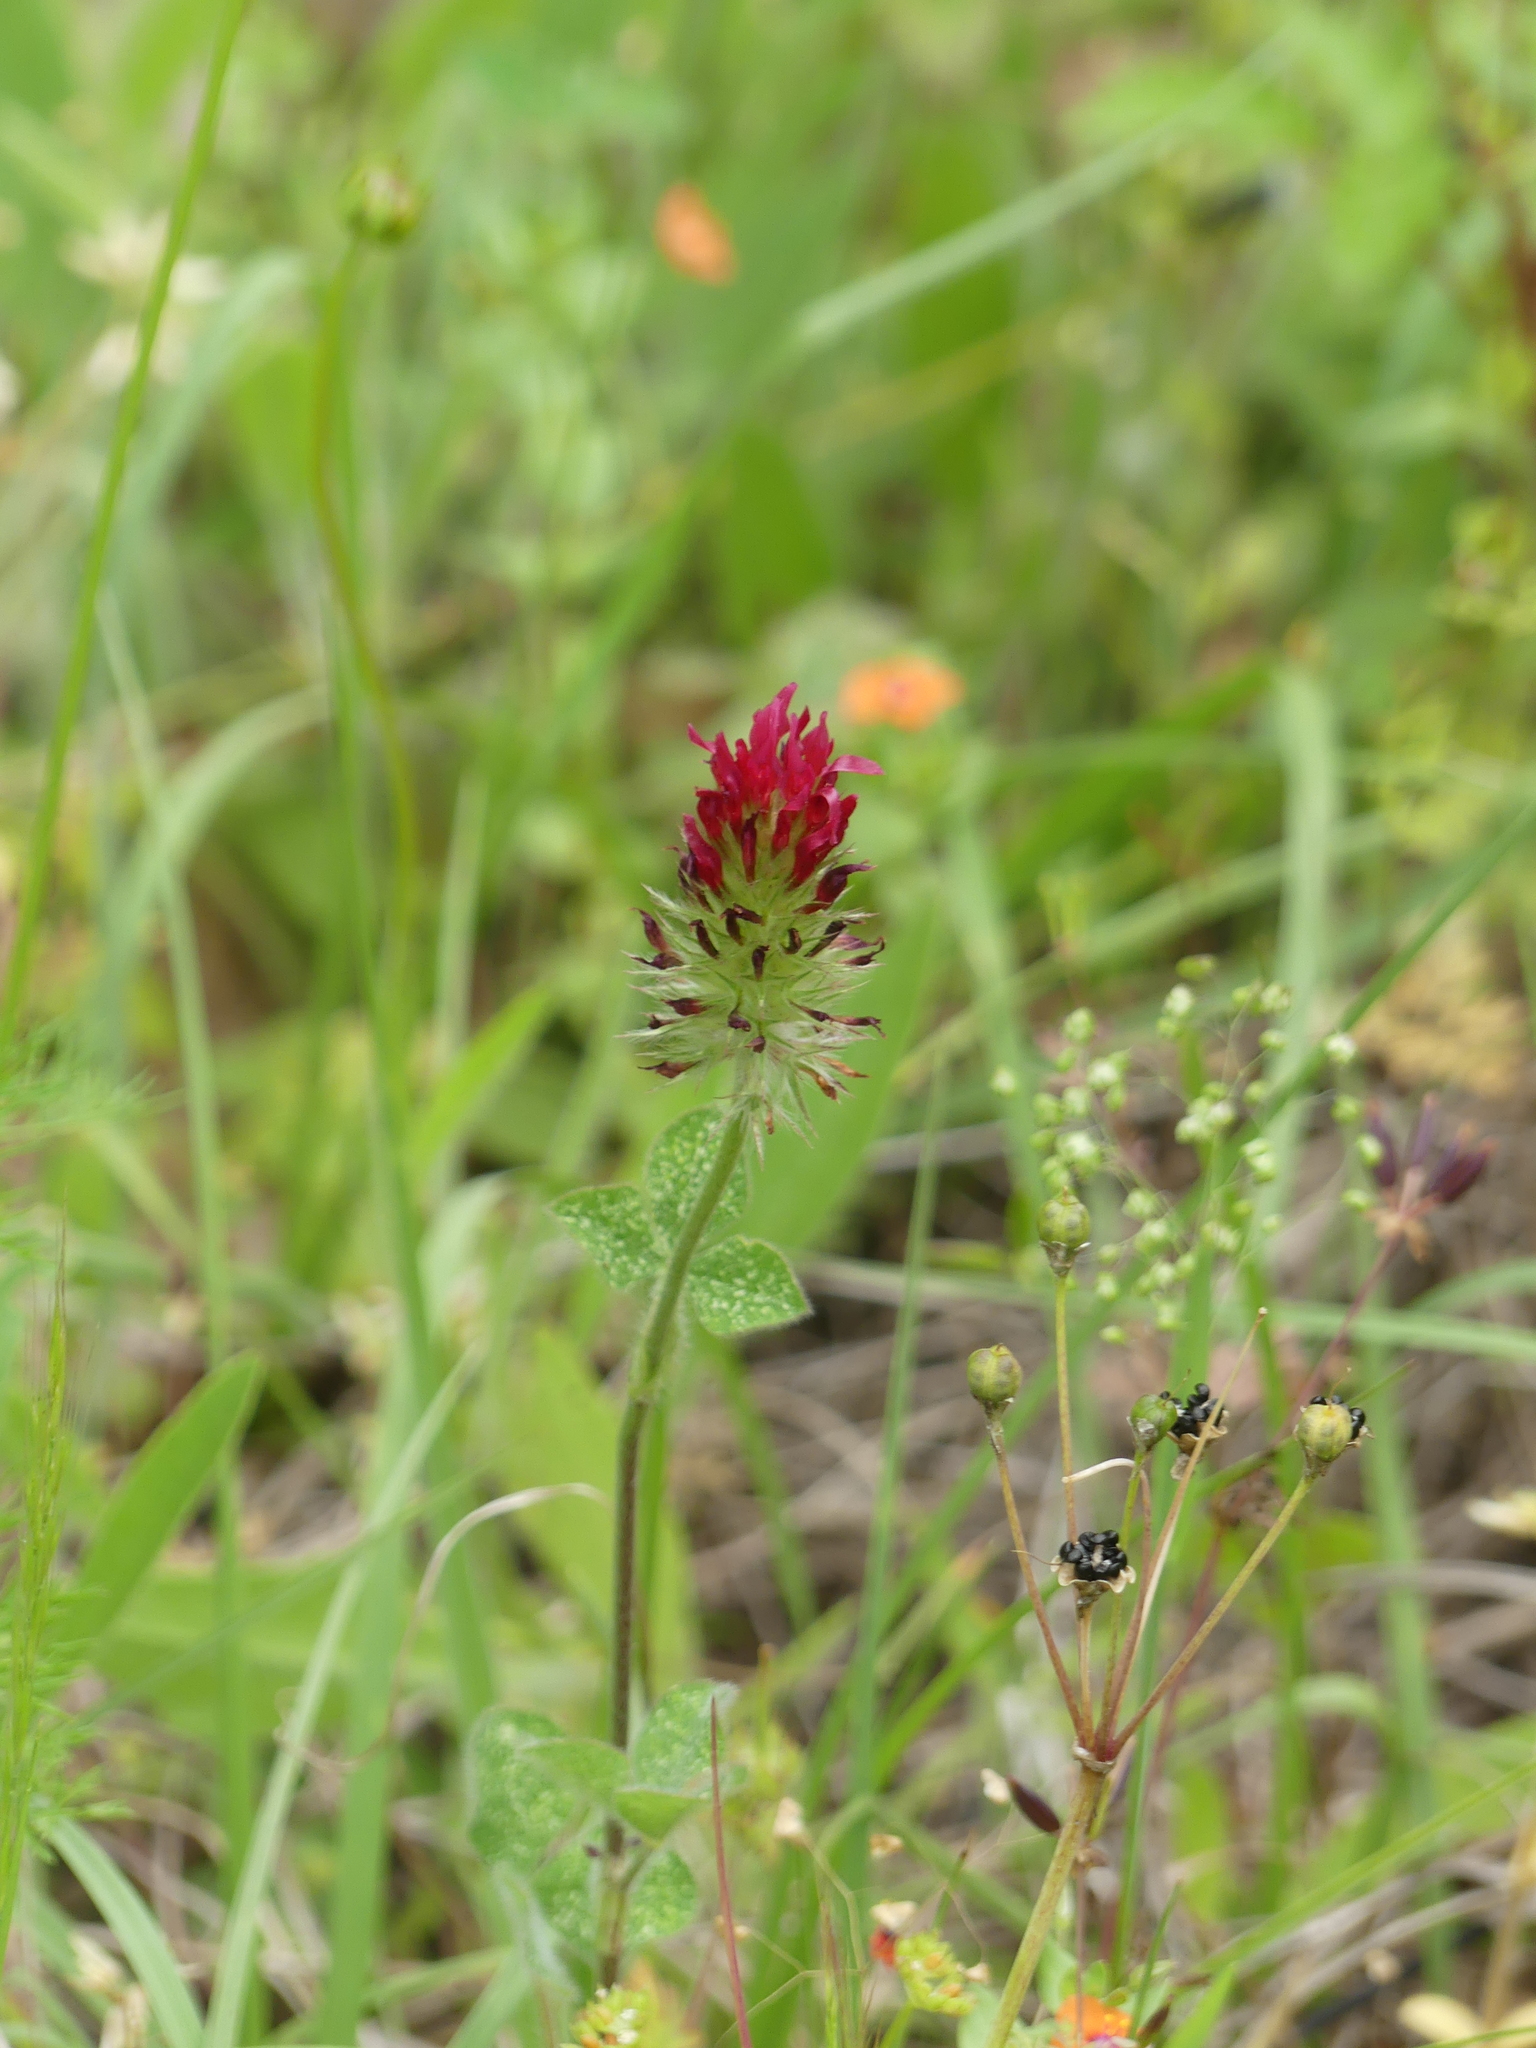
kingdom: Plantae
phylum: Tracheophyta
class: Magnoliopsida
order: Fabales
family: Fabaceae
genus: Trifolium
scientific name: Trifolium incarnatum
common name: Crimson clover
